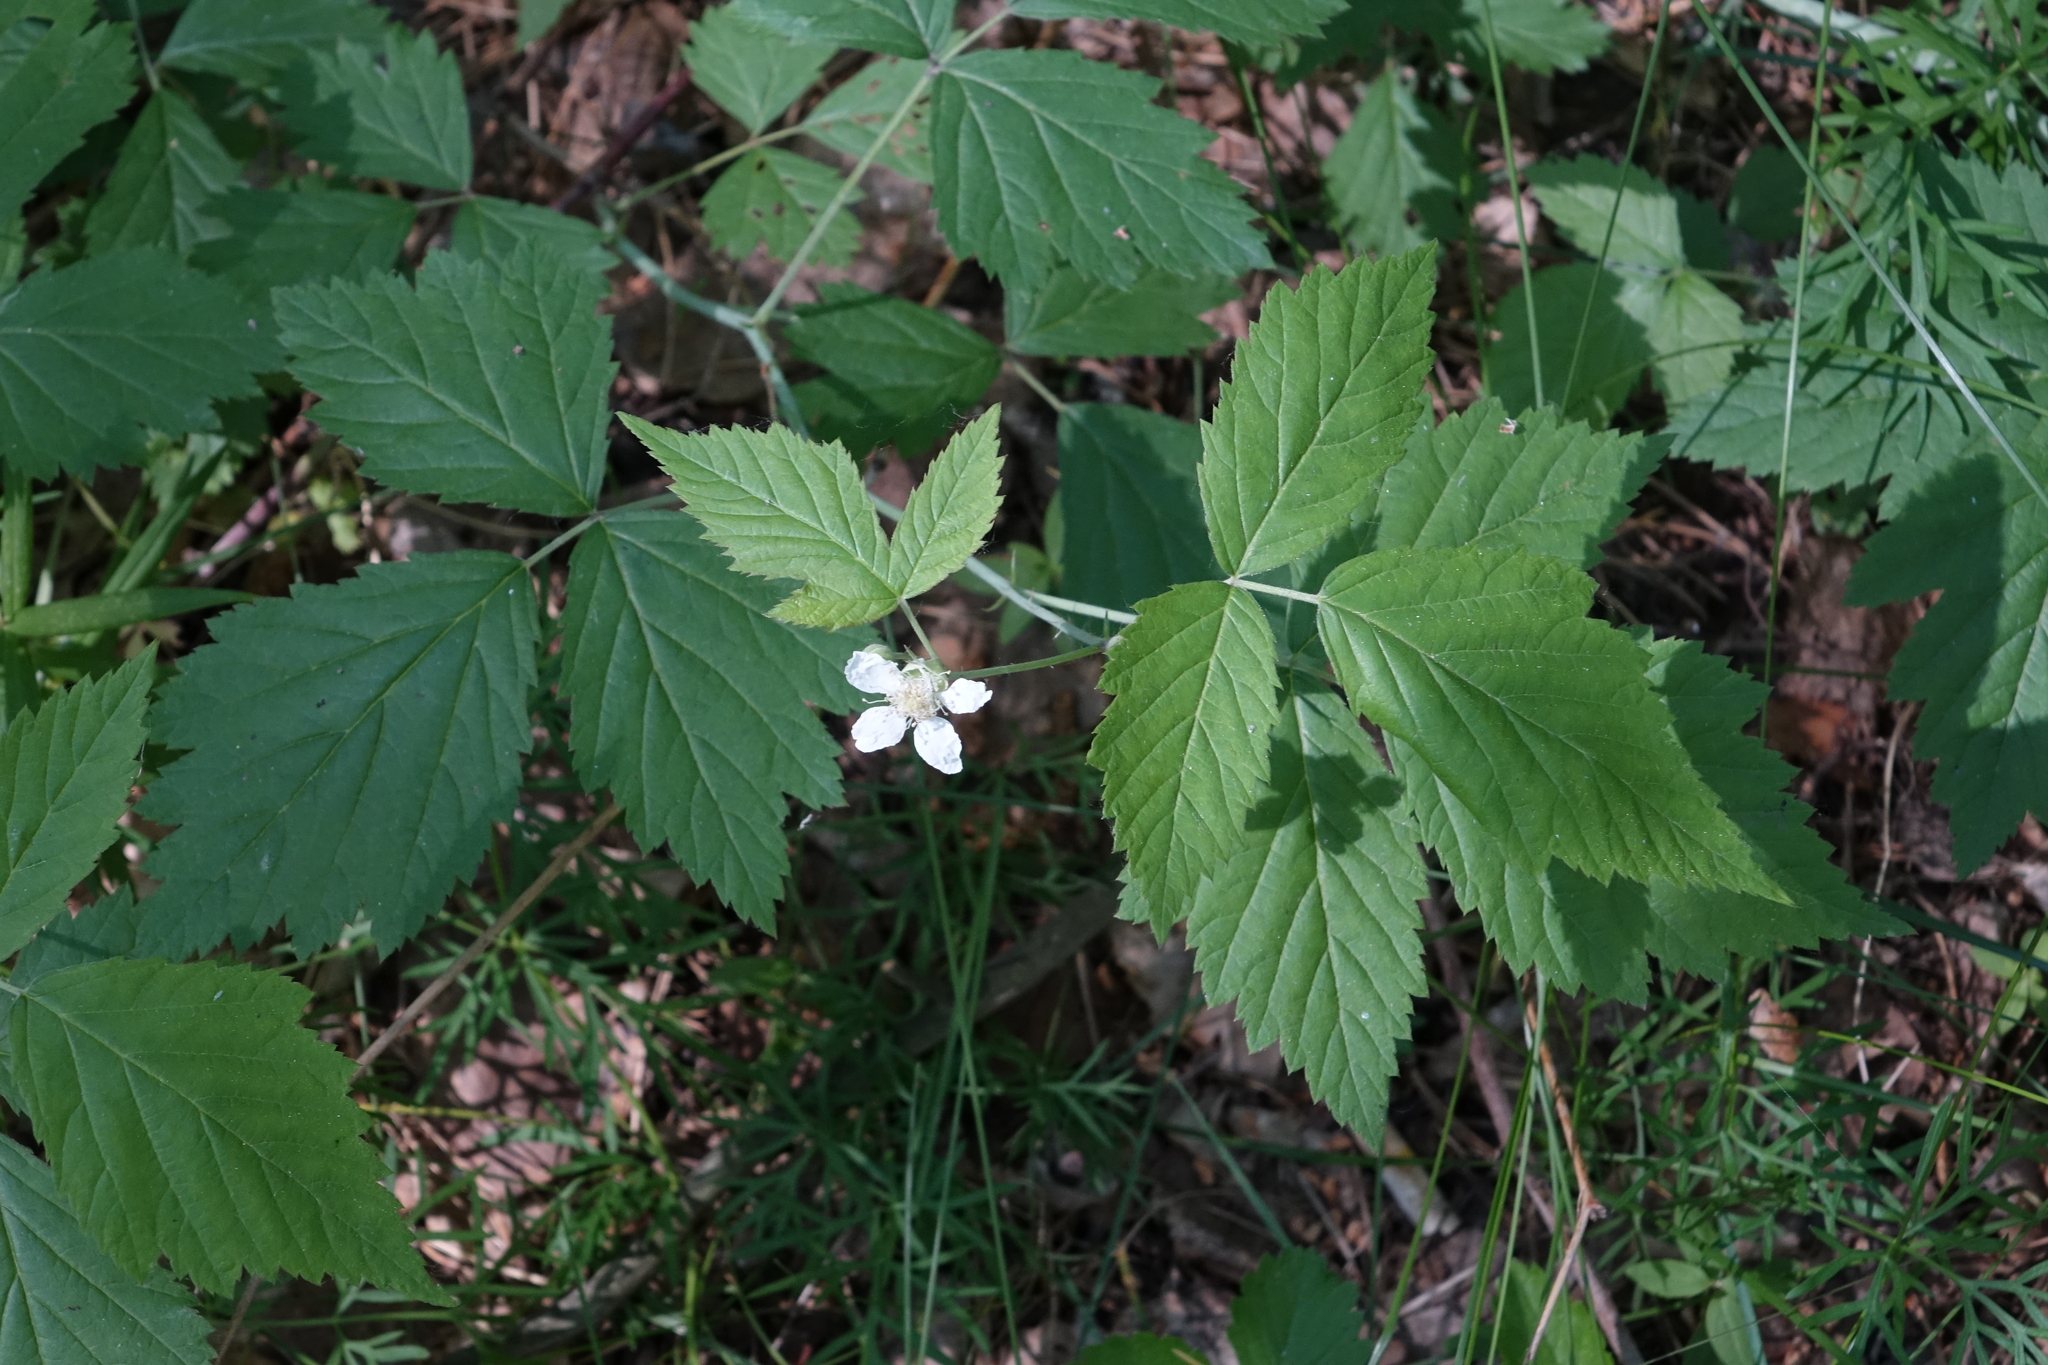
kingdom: Plantae
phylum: Tracheophyta
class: Magnoliopsida
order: Rosales
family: Rosaceae
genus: Rubus
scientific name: Rubus caesius
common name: Dewberry
